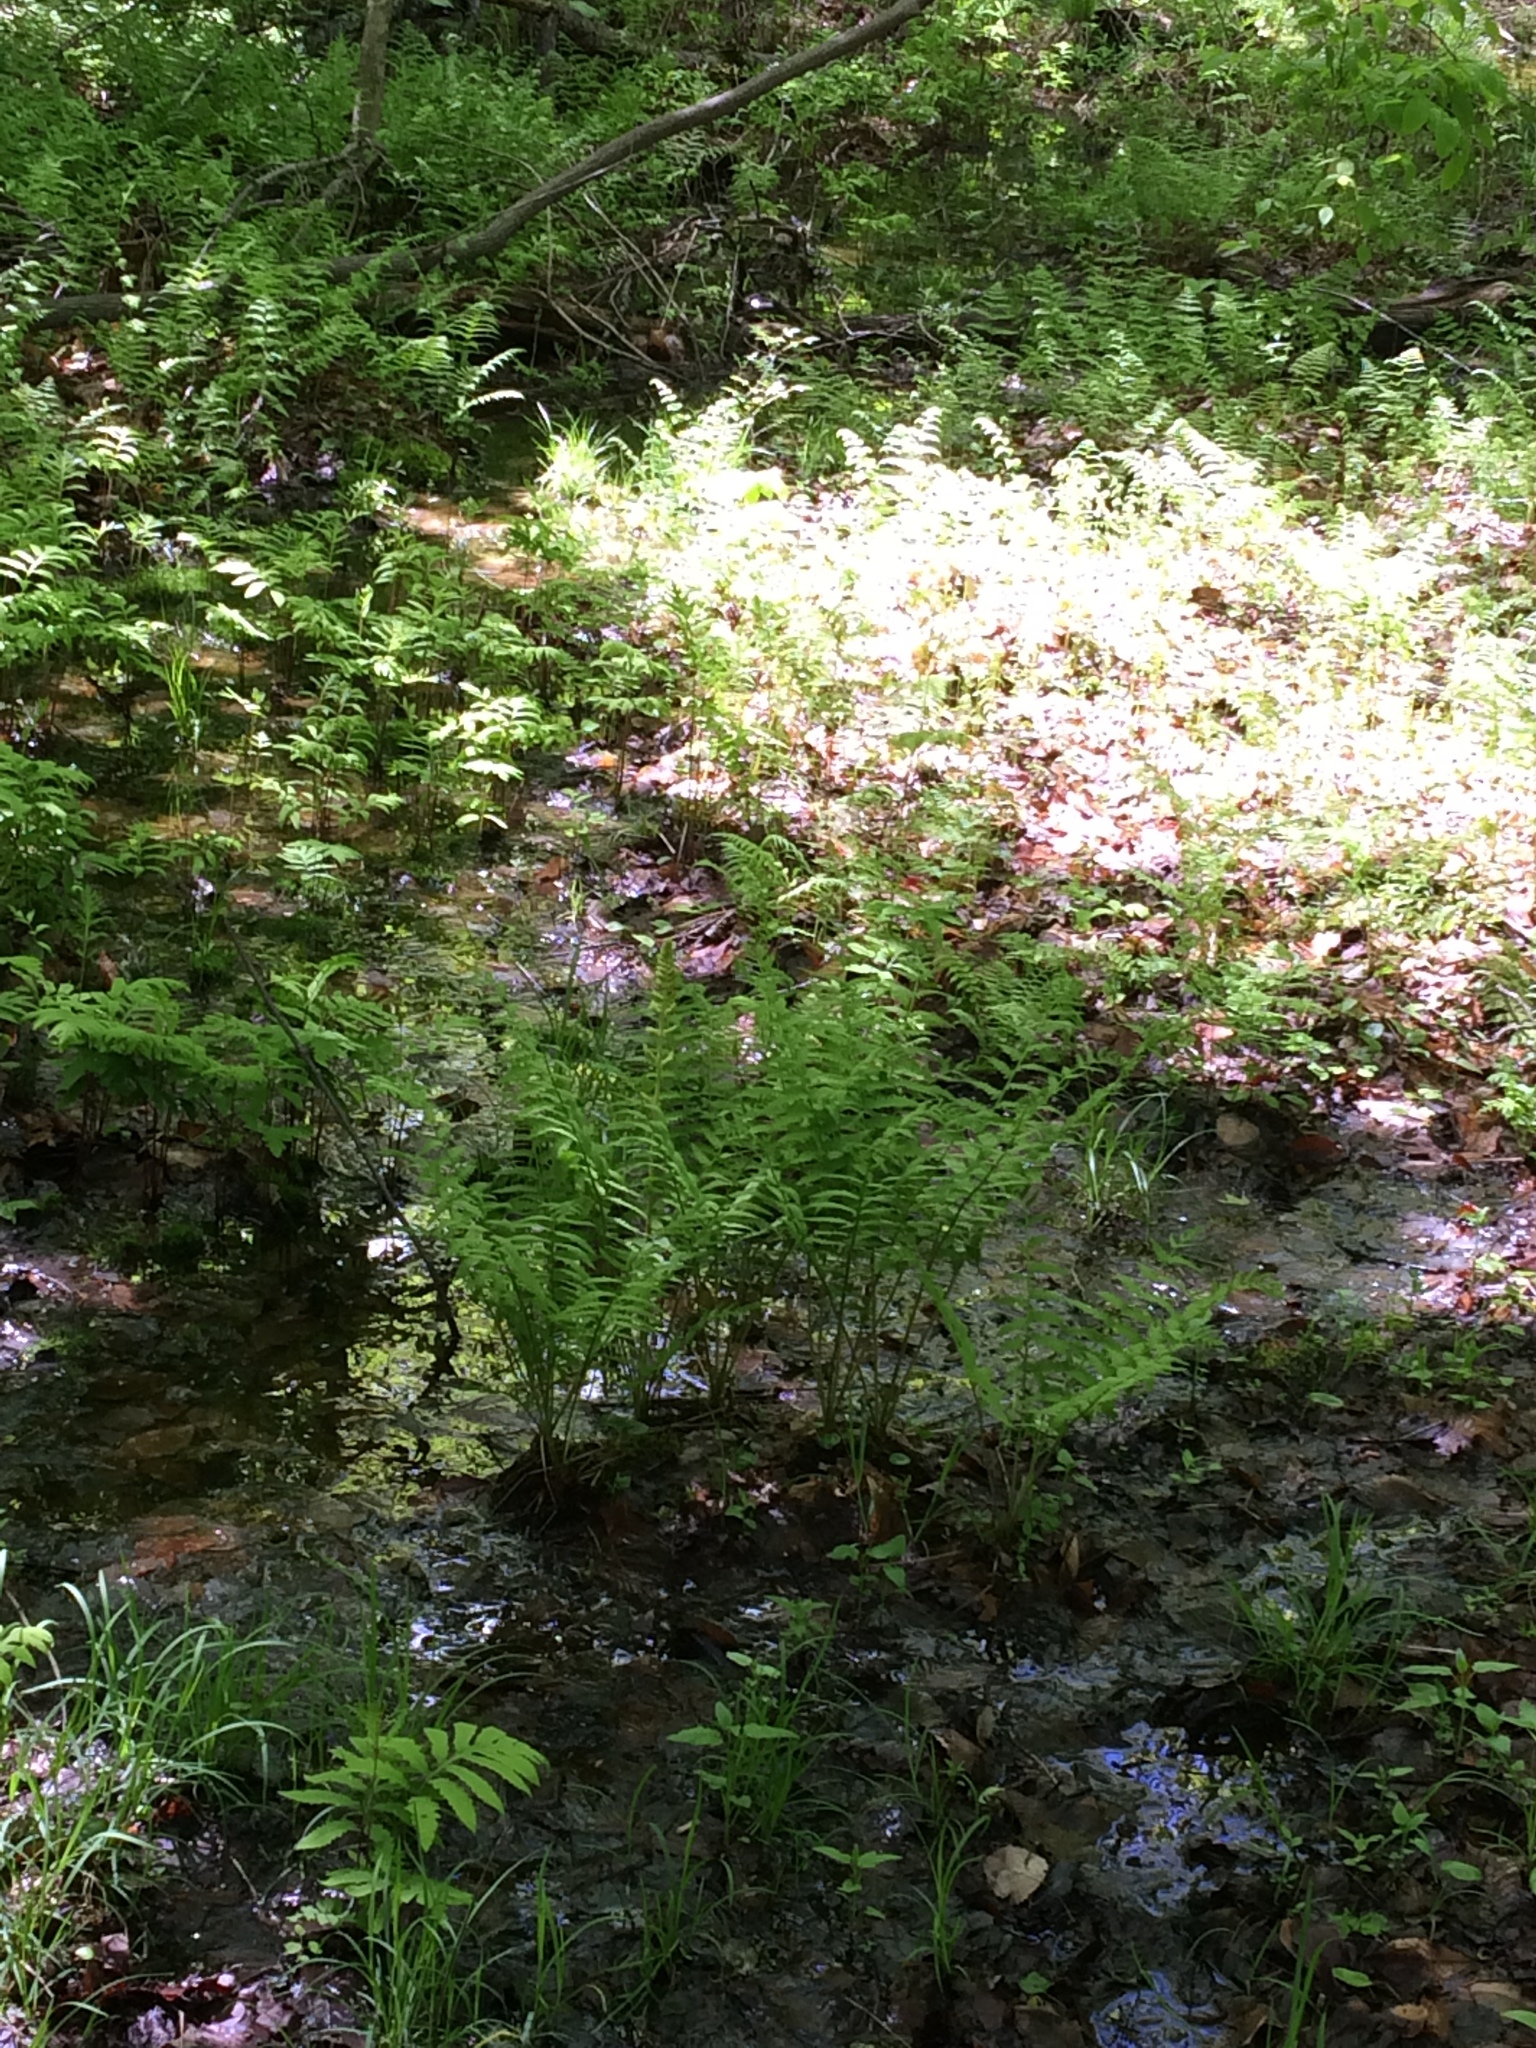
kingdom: Plantae
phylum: Tracheophyta
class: Polypodiopsida
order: Osmundales
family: Osmundaceae
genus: Claytosmunda
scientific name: Claytosmunda claytoniana
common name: Clayton's fern
